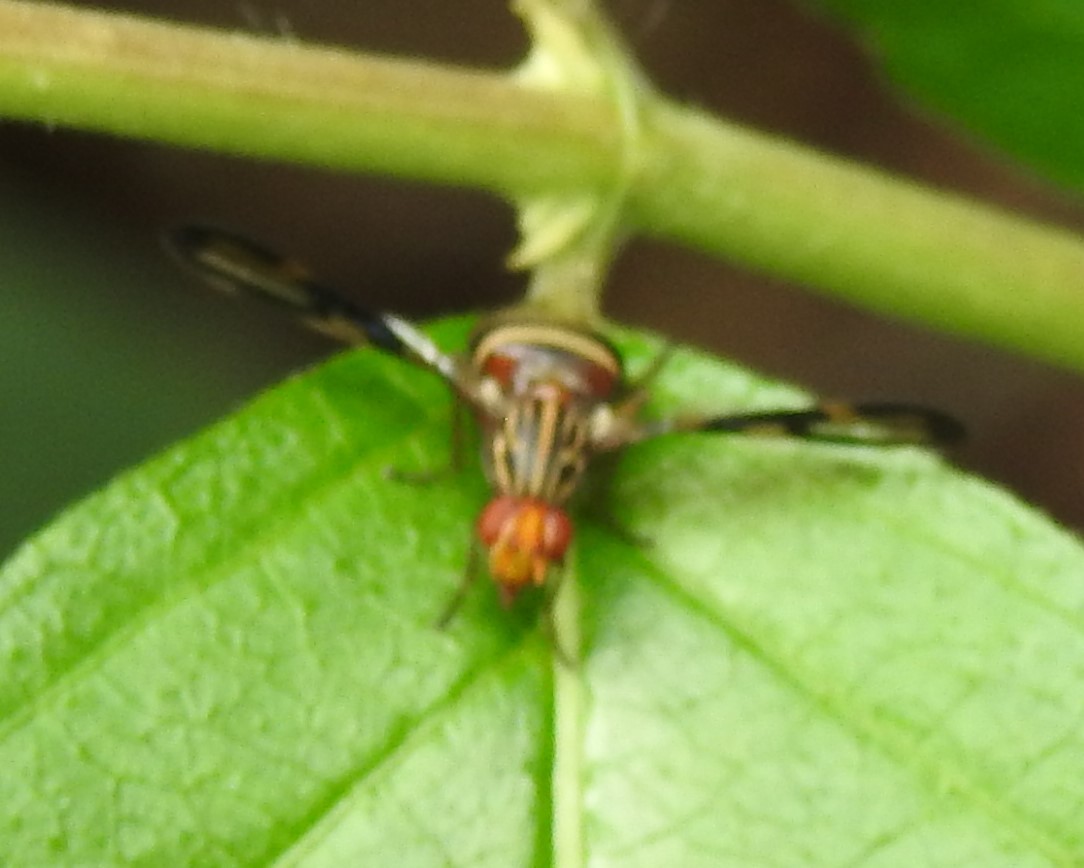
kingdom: Animalia
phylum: Arthropoda
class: Insecta
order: Diptera
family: Ulidiidae
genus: Idana
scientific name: Idana marginata
